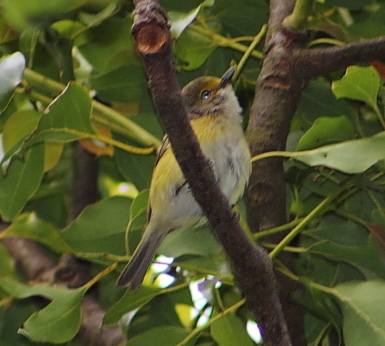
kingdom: Animalia
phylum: Chordata
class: Aves
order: Passeriformes
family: Vireonidae
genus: Vireo
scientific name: Vireo griseus
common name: White-eyed vireo
